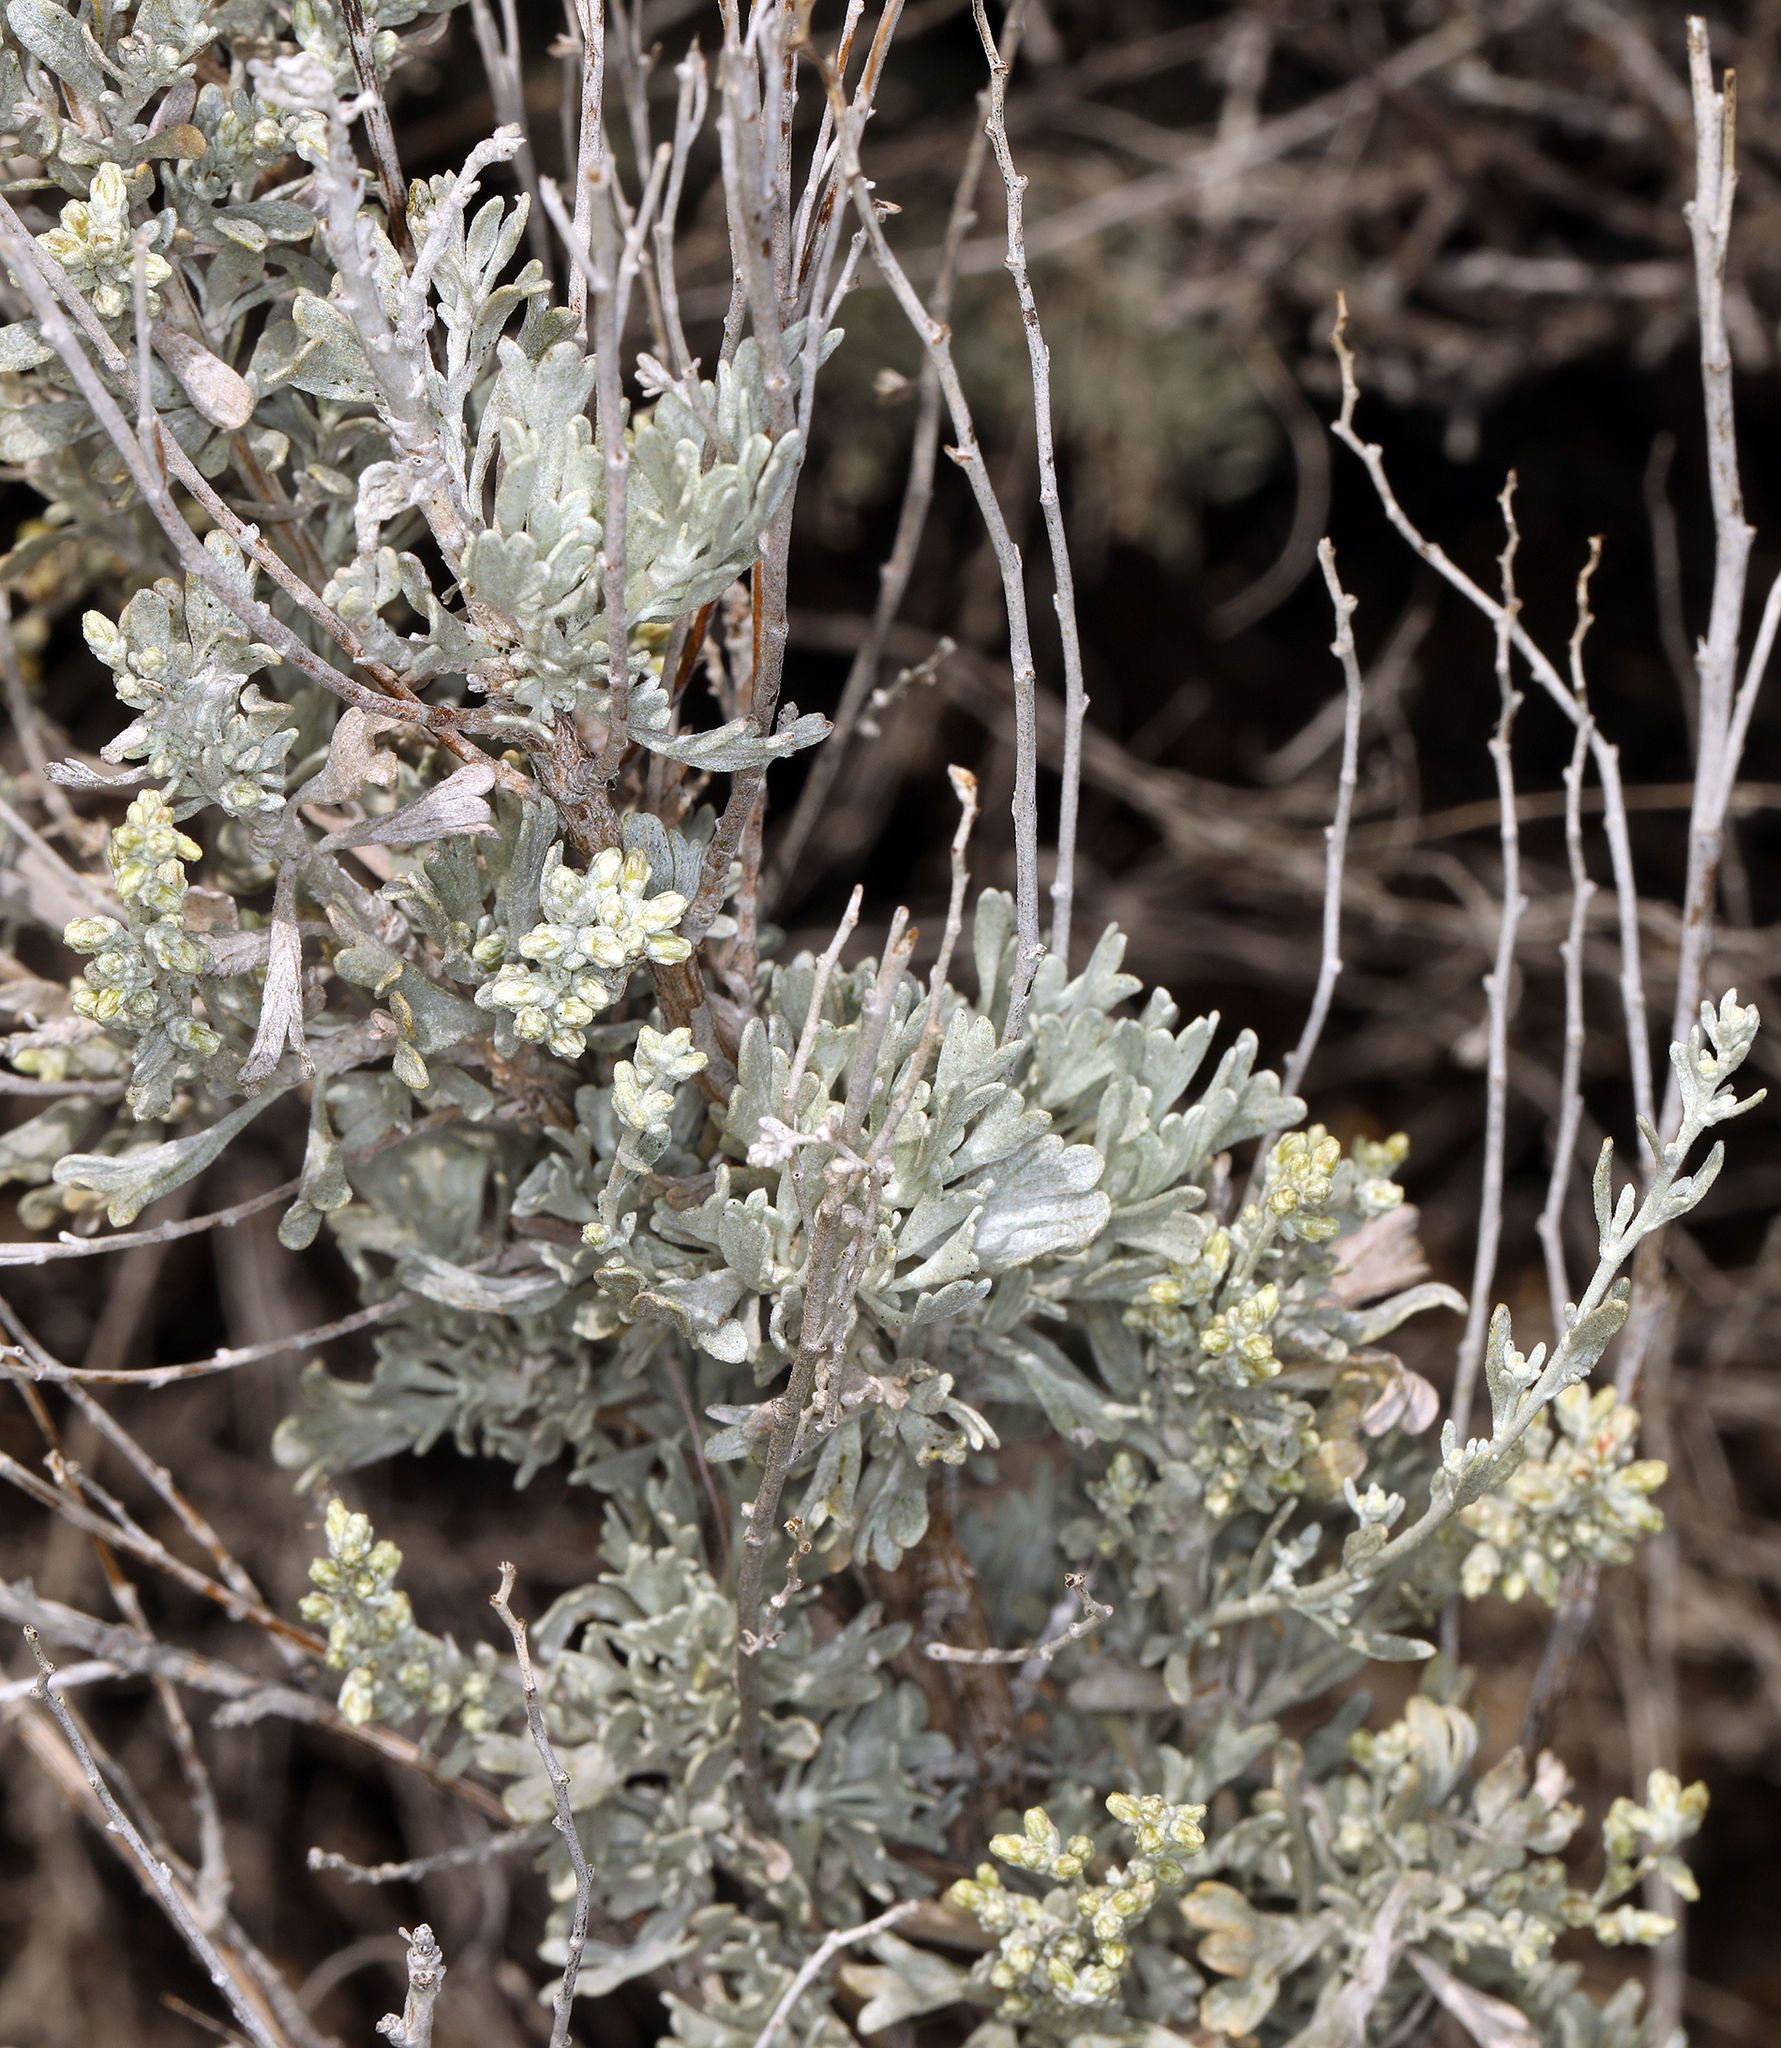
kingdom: Plantae
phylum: Tracheophyta
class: Magnoliopsida
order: Asterales
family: Asteraceae
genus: Artemisia
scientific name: Artemisia tridentata
